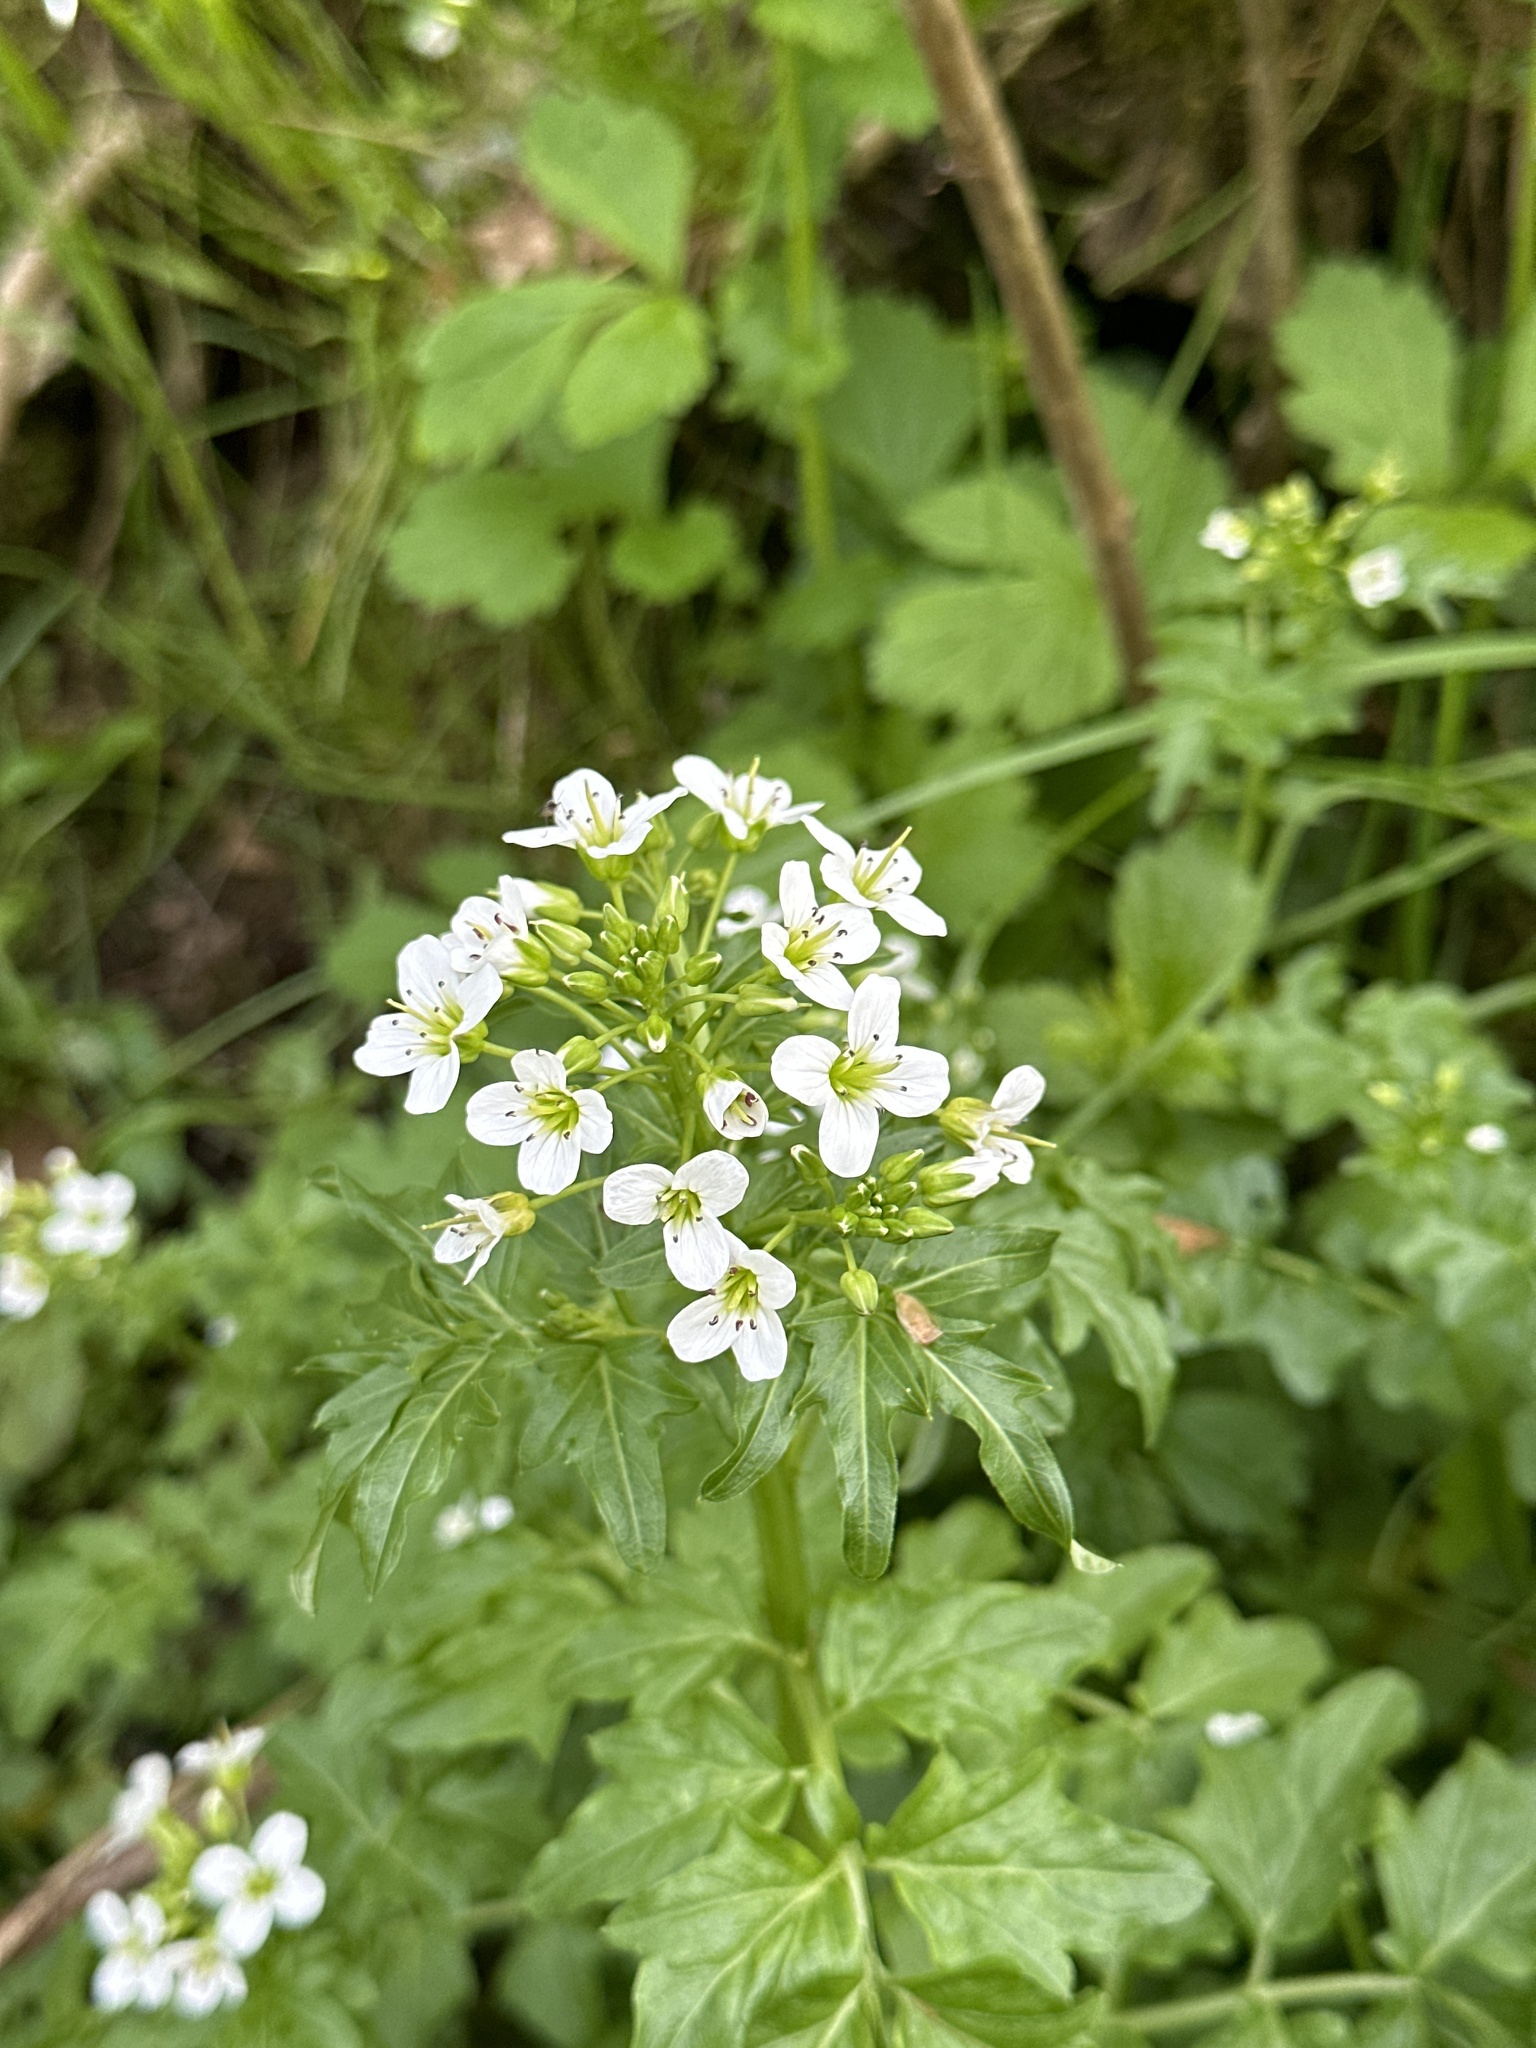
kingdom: Plantae
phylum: Tracheophyta
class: Magnoliopsida
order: Brassicales
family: Brassicaceae
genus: Cardamine
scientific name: Cardamine amara
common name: Large bitter-cress
